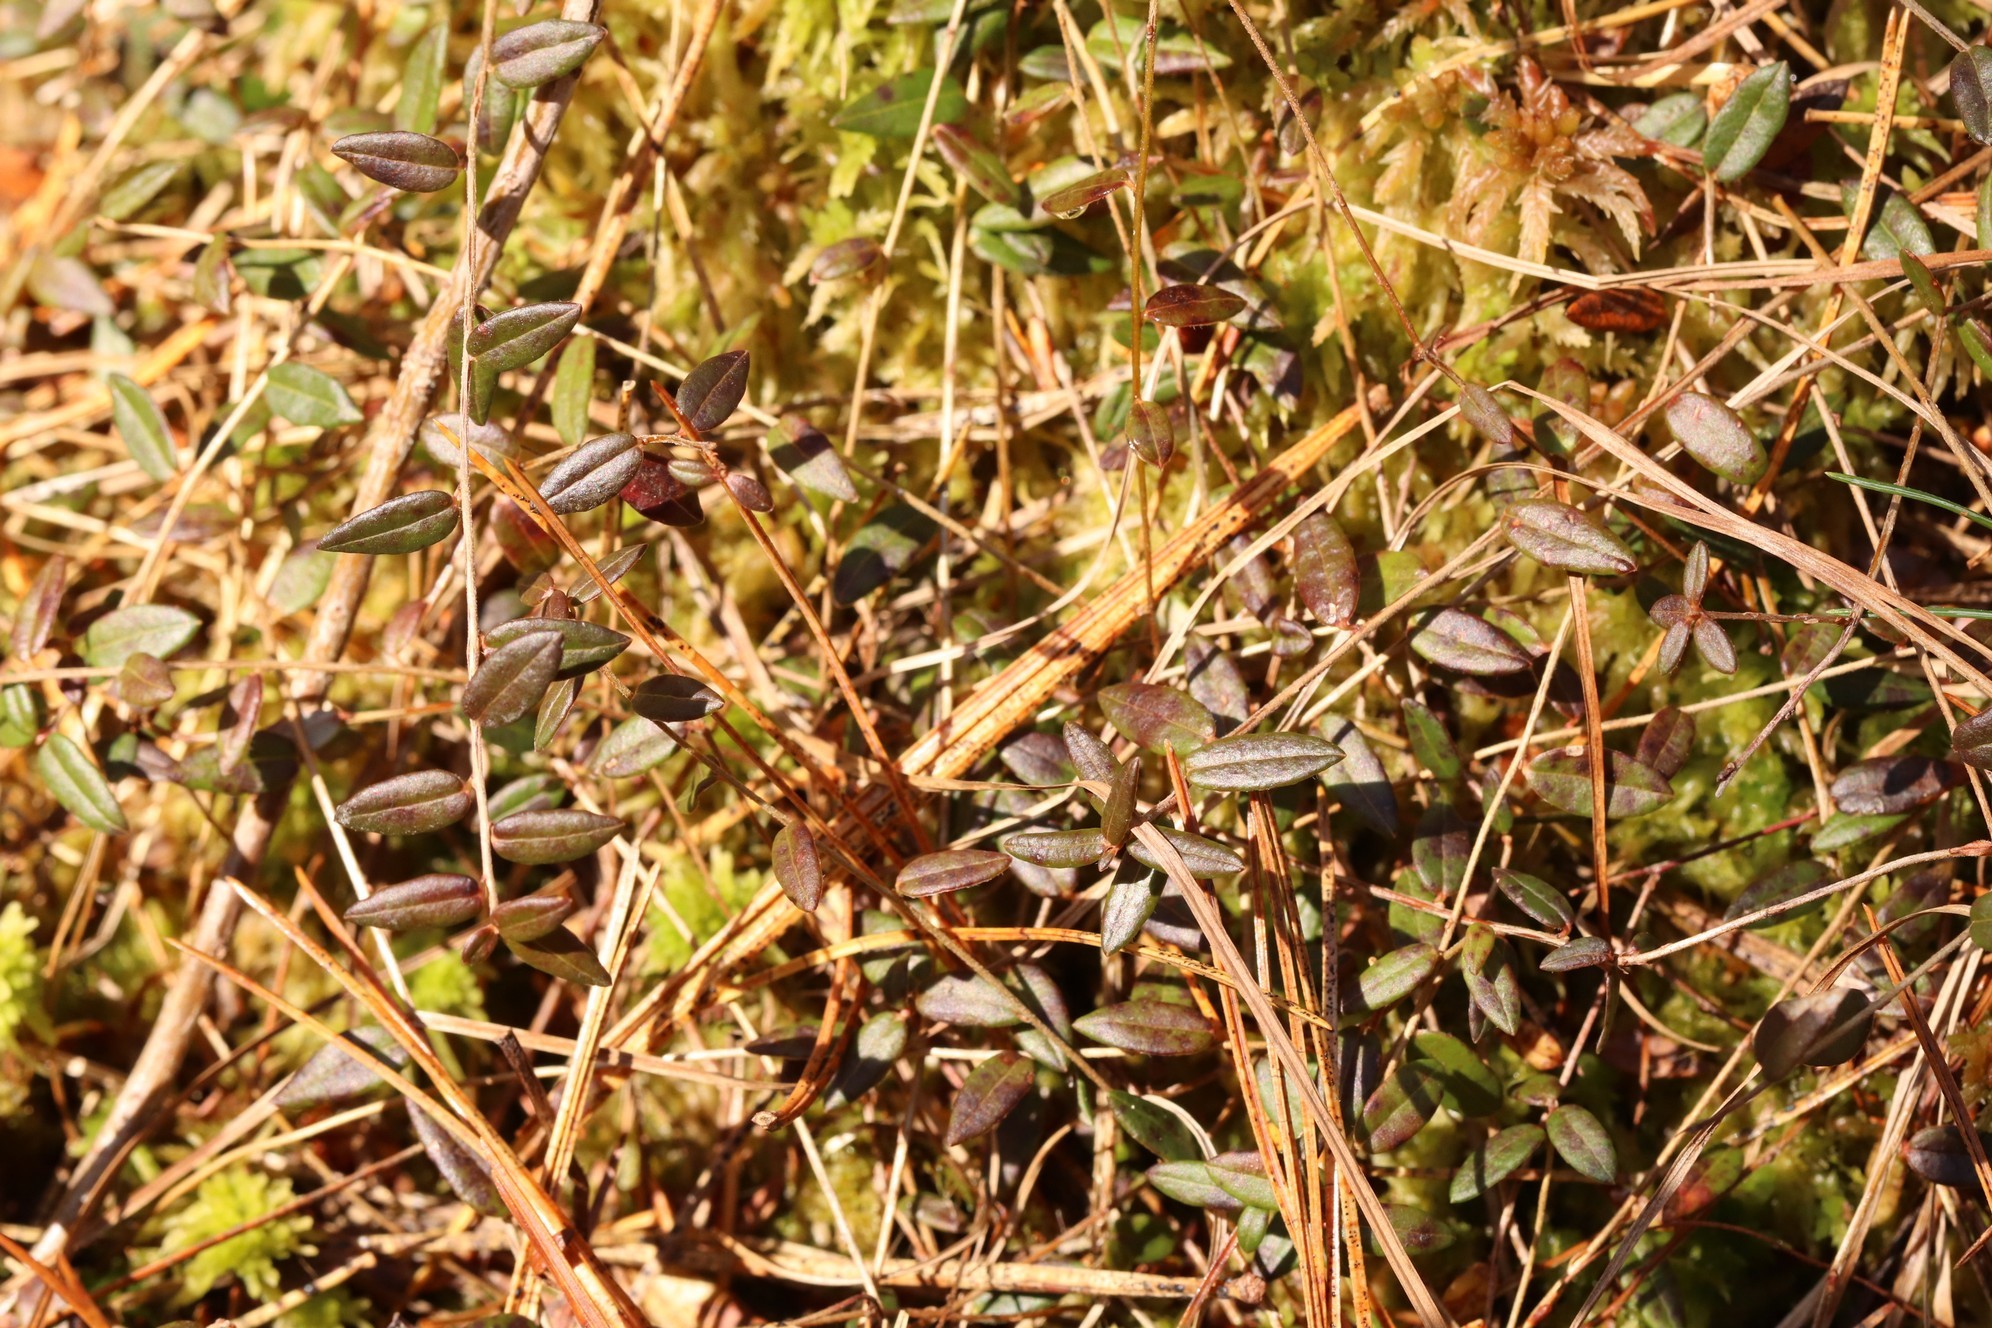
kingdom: Plantae
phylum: Tracheophyta
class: Magnoliopsida
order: Ericales
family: Ericaceae
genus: Vaccinium
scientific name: Vaccinium oxycoccos
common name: Cranberry
